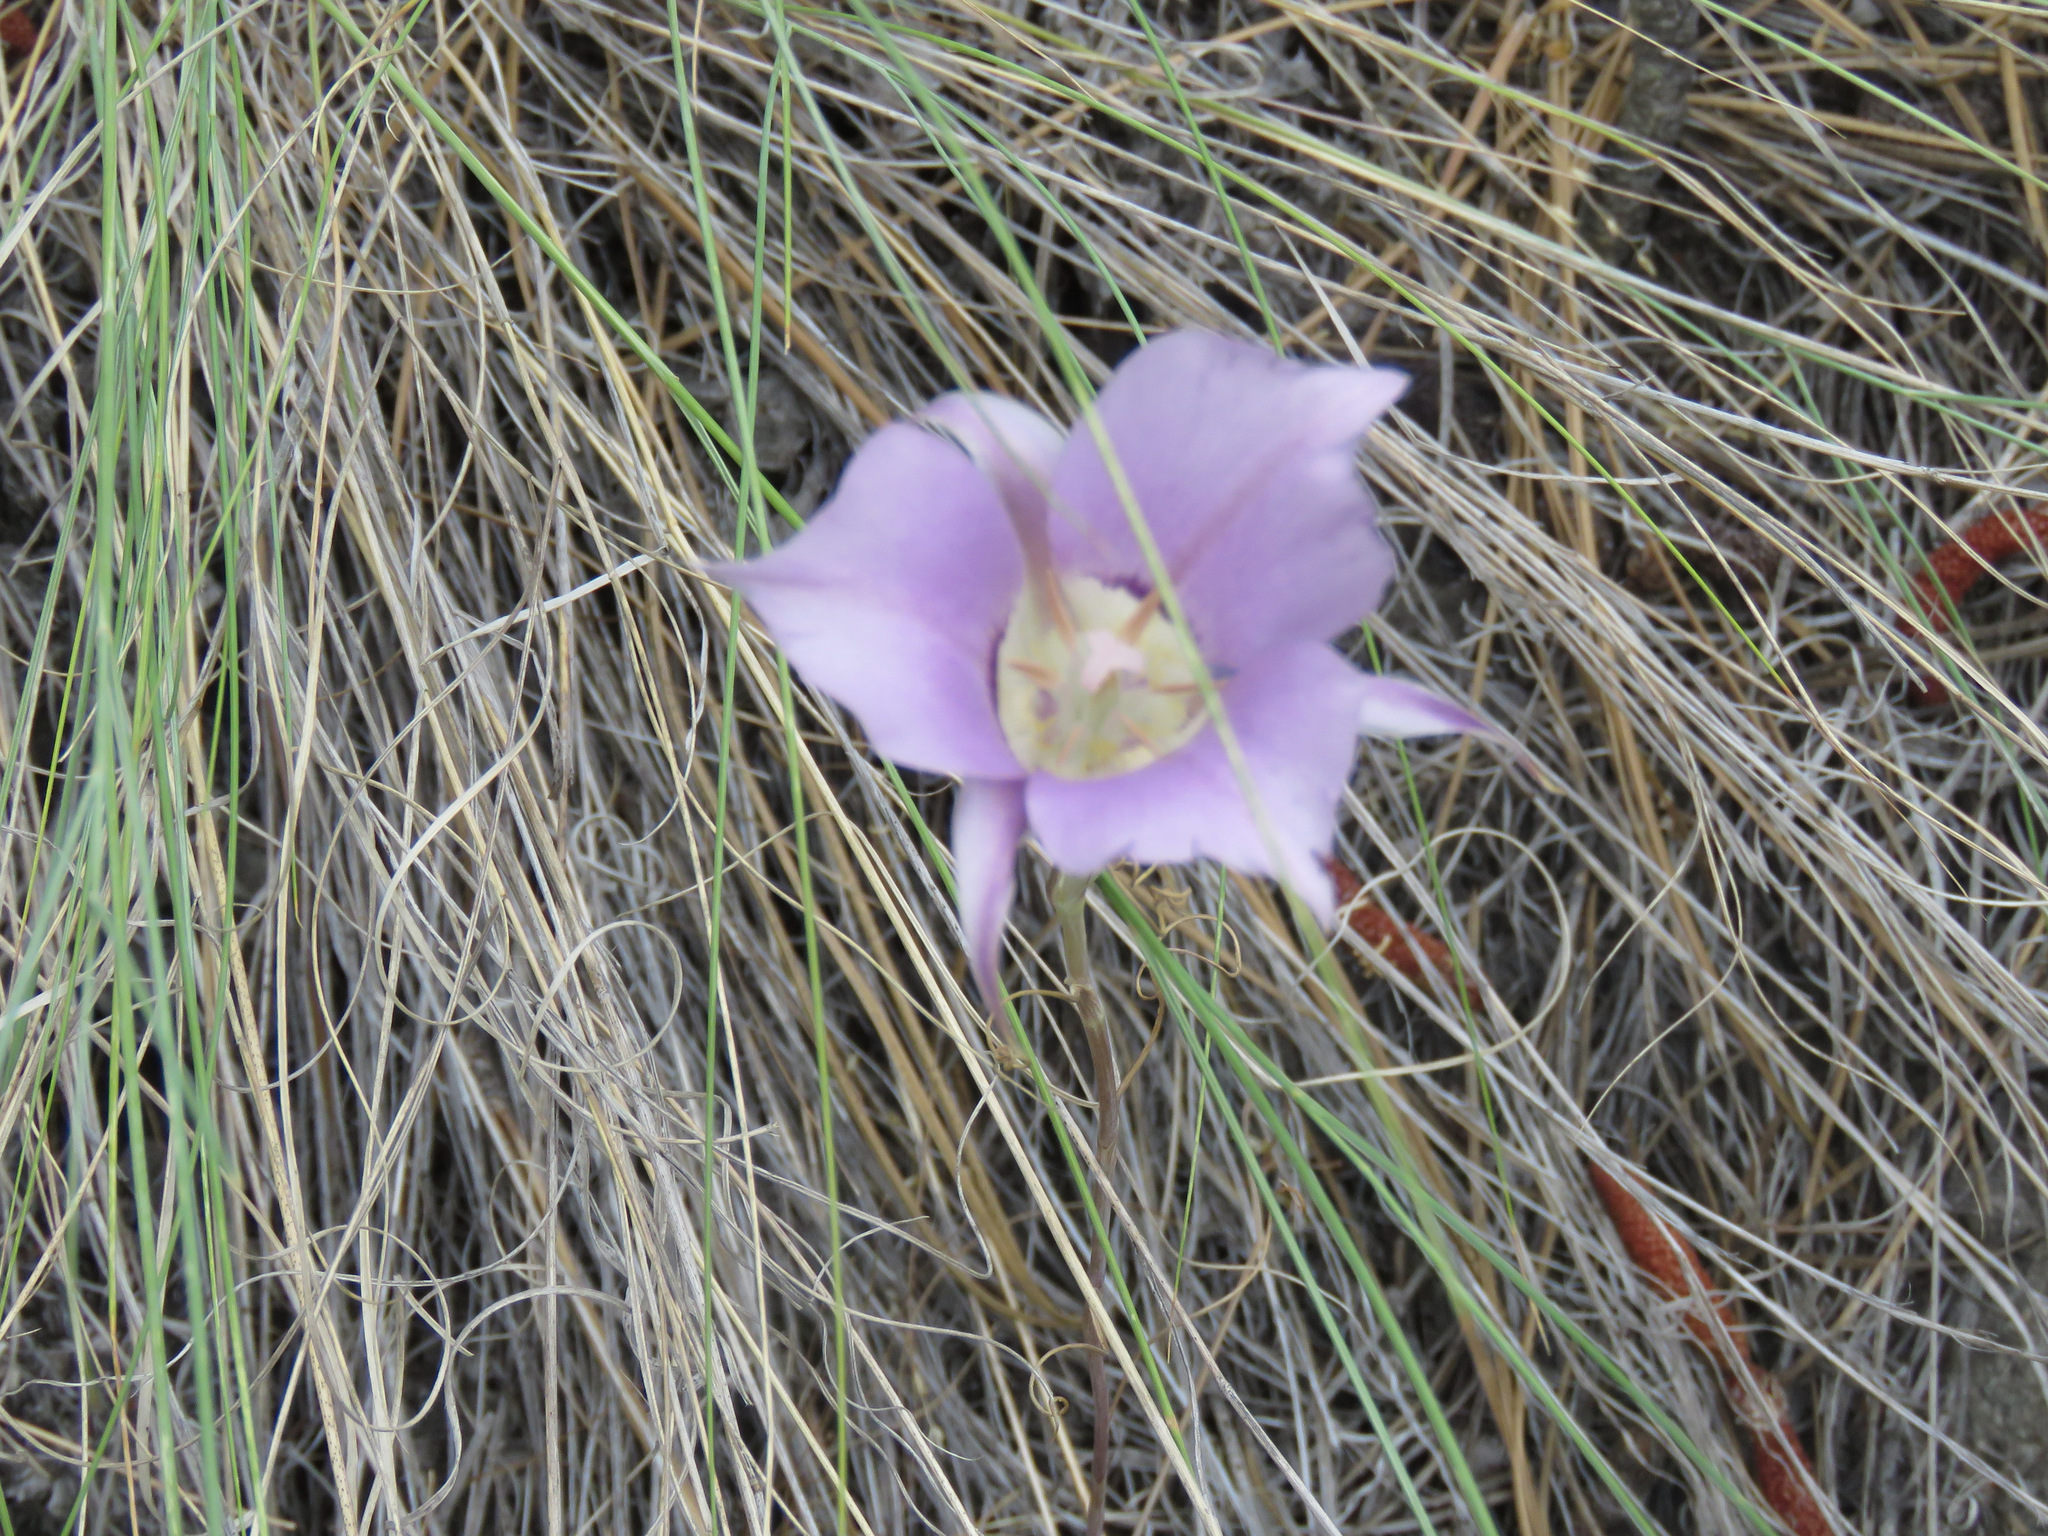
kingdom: Plantae
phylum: Tracheophyta
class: Liliopsida
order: Liliales
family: Liliaceae
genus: Calochortus
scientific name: Calochortus macrocarpus
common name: Green-band mariposa lily
